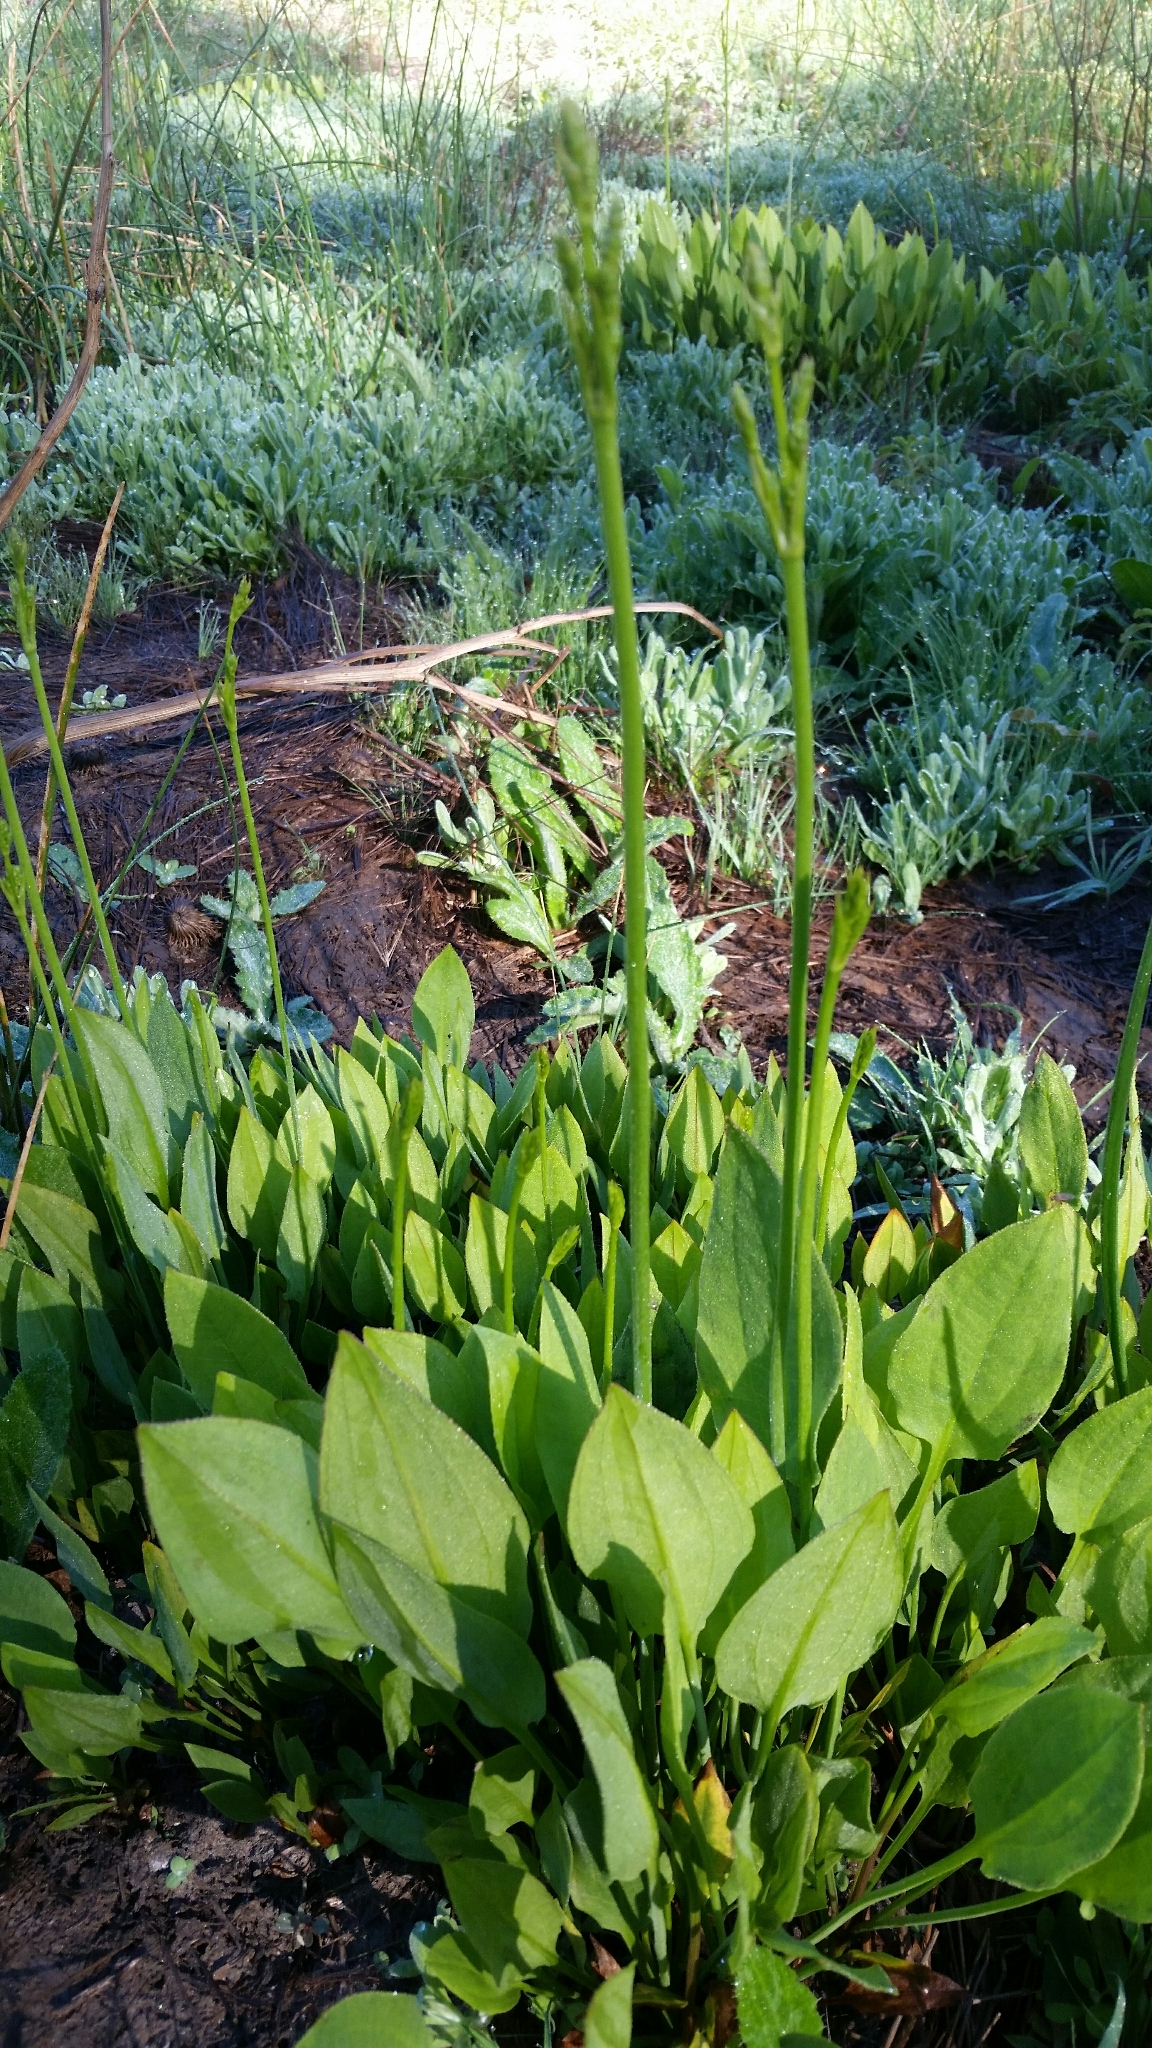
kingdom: Plantae
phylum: Tracheophyta
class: Liliopsida
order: Alismatales
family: Alismataceae
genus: Alisma
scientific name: Alisma triviale
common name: Northern water-plantain
